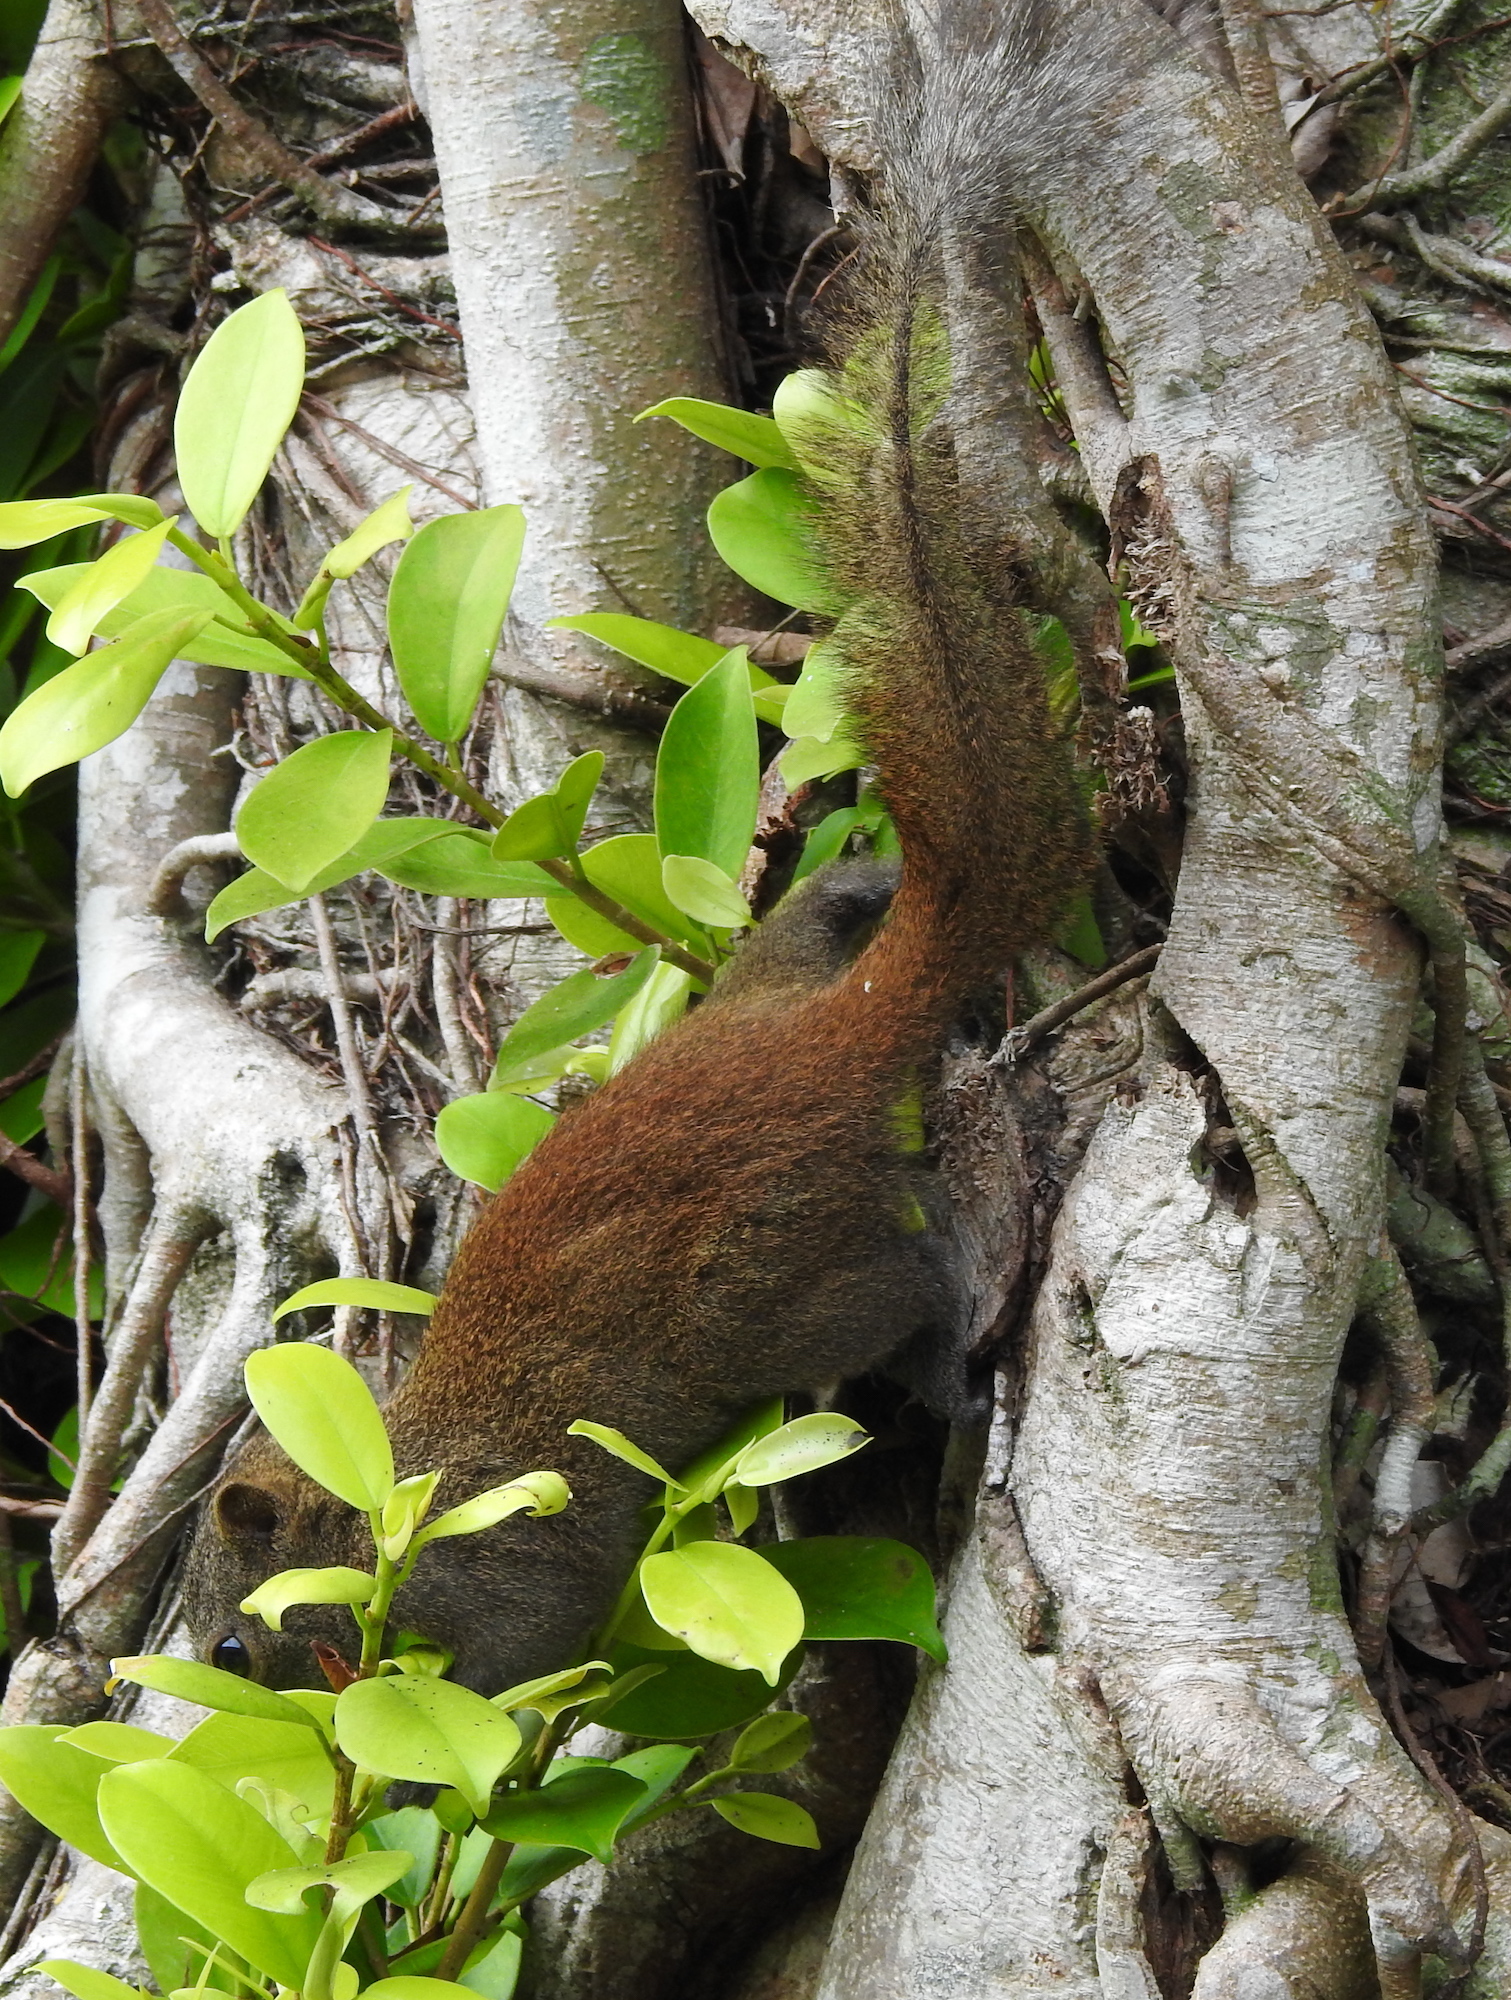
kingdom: Animalia
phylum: Chordata
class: Mammalia
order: Rodentia
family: Sciuridae
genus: Callosciurus
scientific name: Callosciurus caniceps
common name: Gray-bellied squirrel
